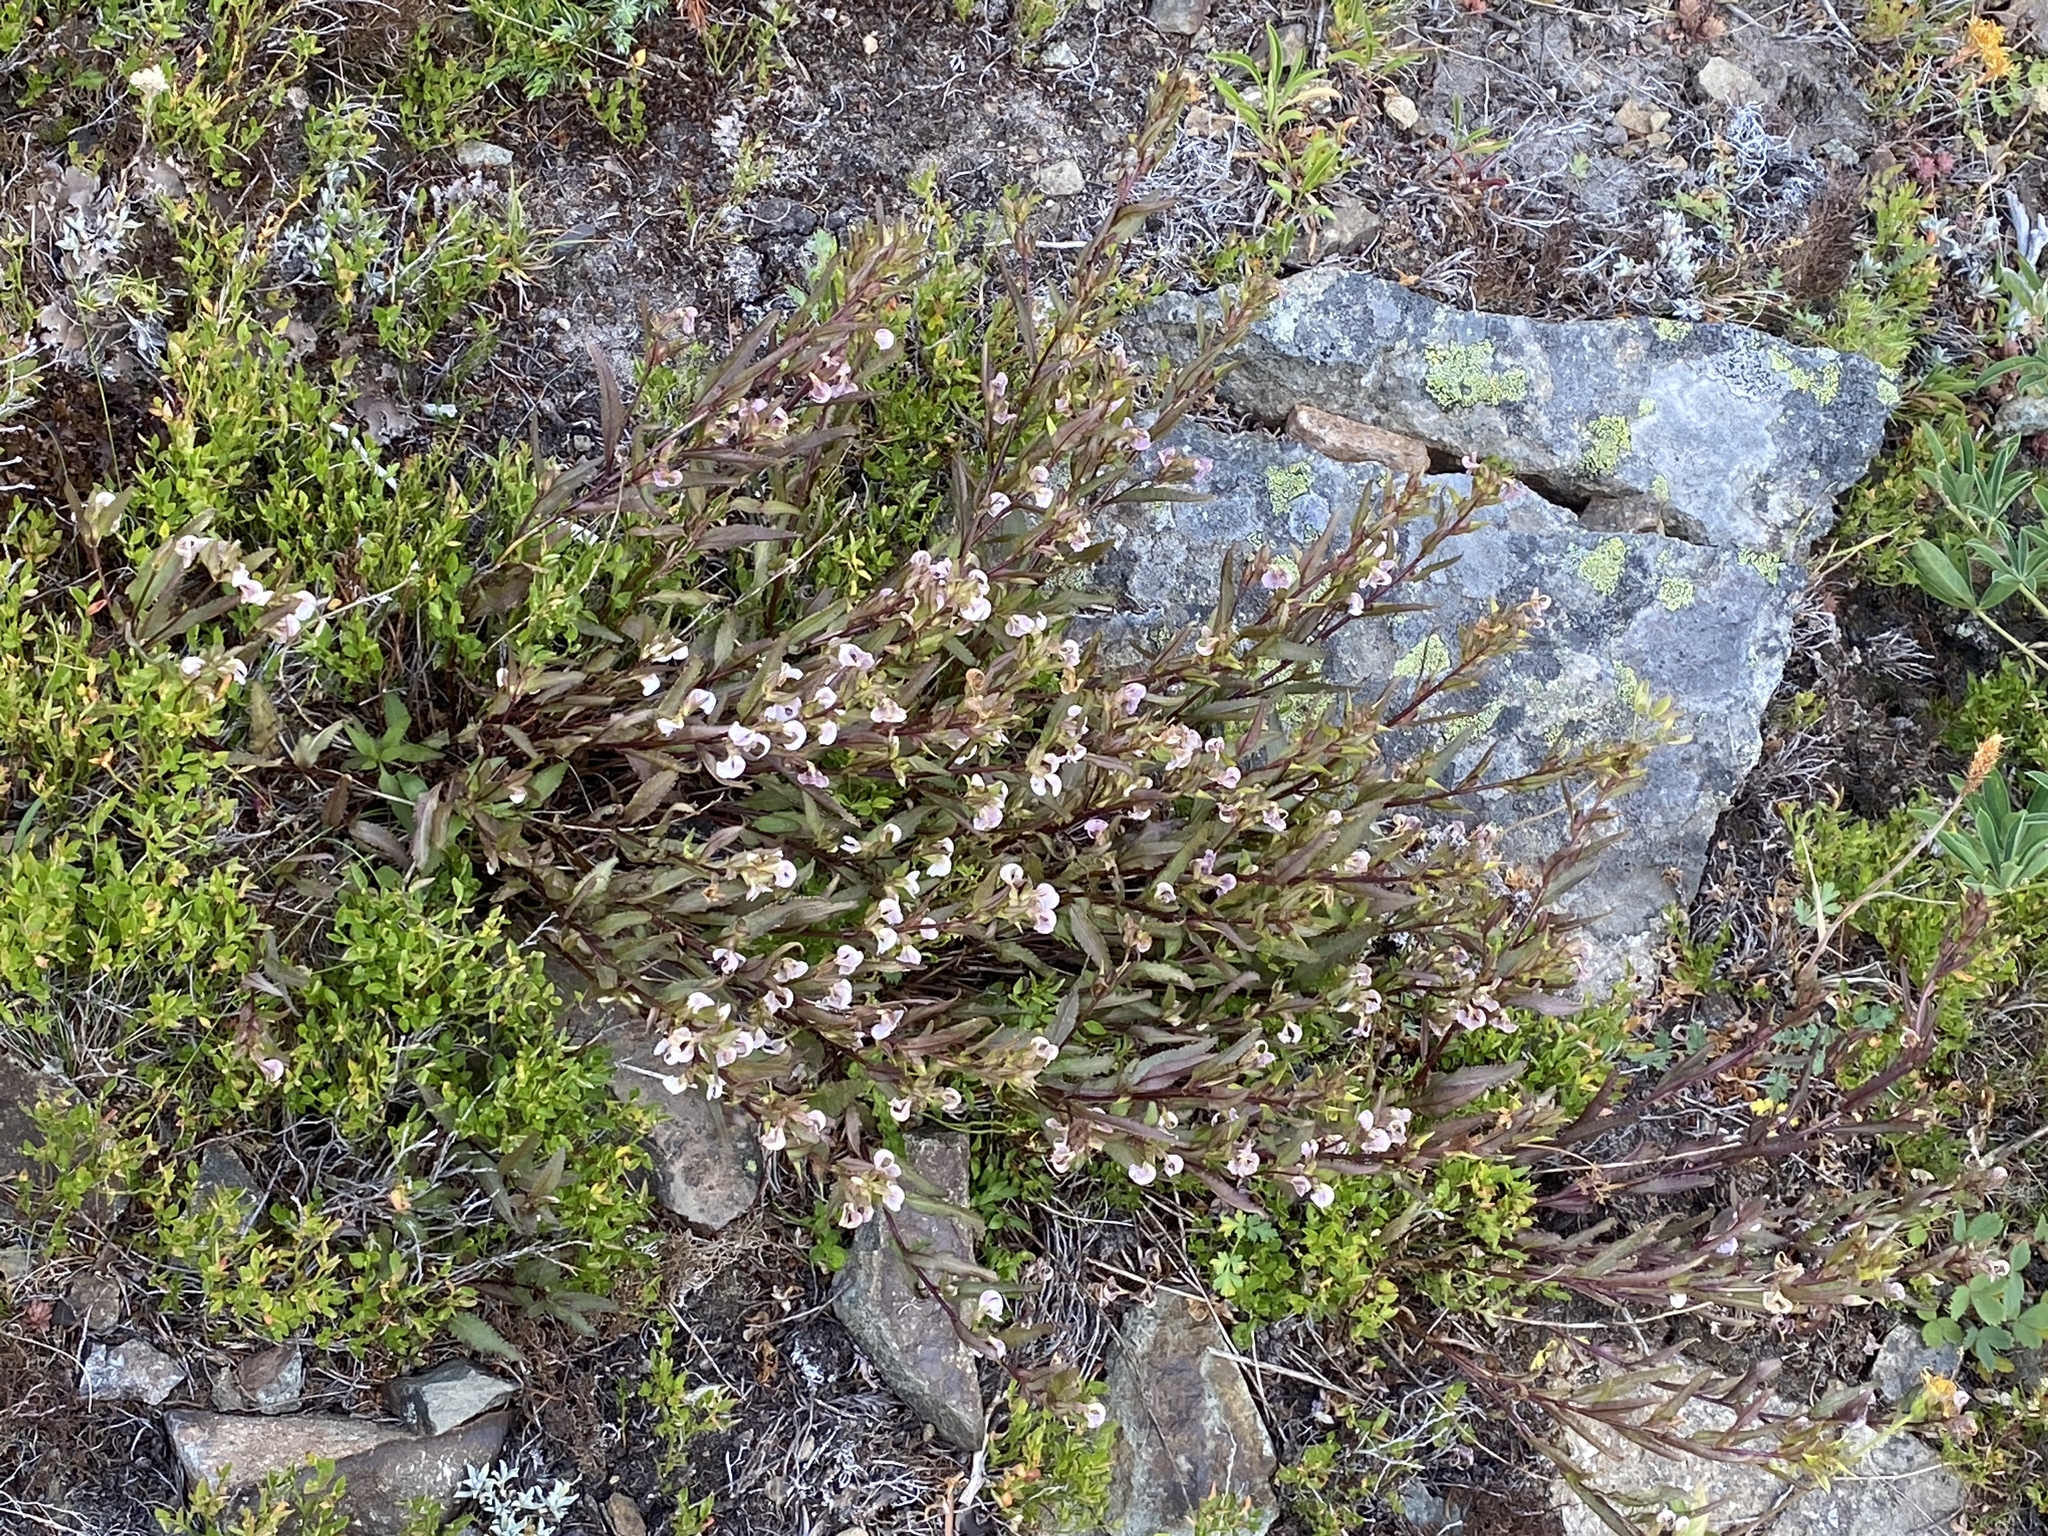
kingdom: Plantae
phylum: Tracheophyta
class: Magnoliopsida
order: Lamiales
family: Orobanchaceae
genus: Pedicularis
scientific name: Pedicularis racemosa
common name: Leafy lousewort
